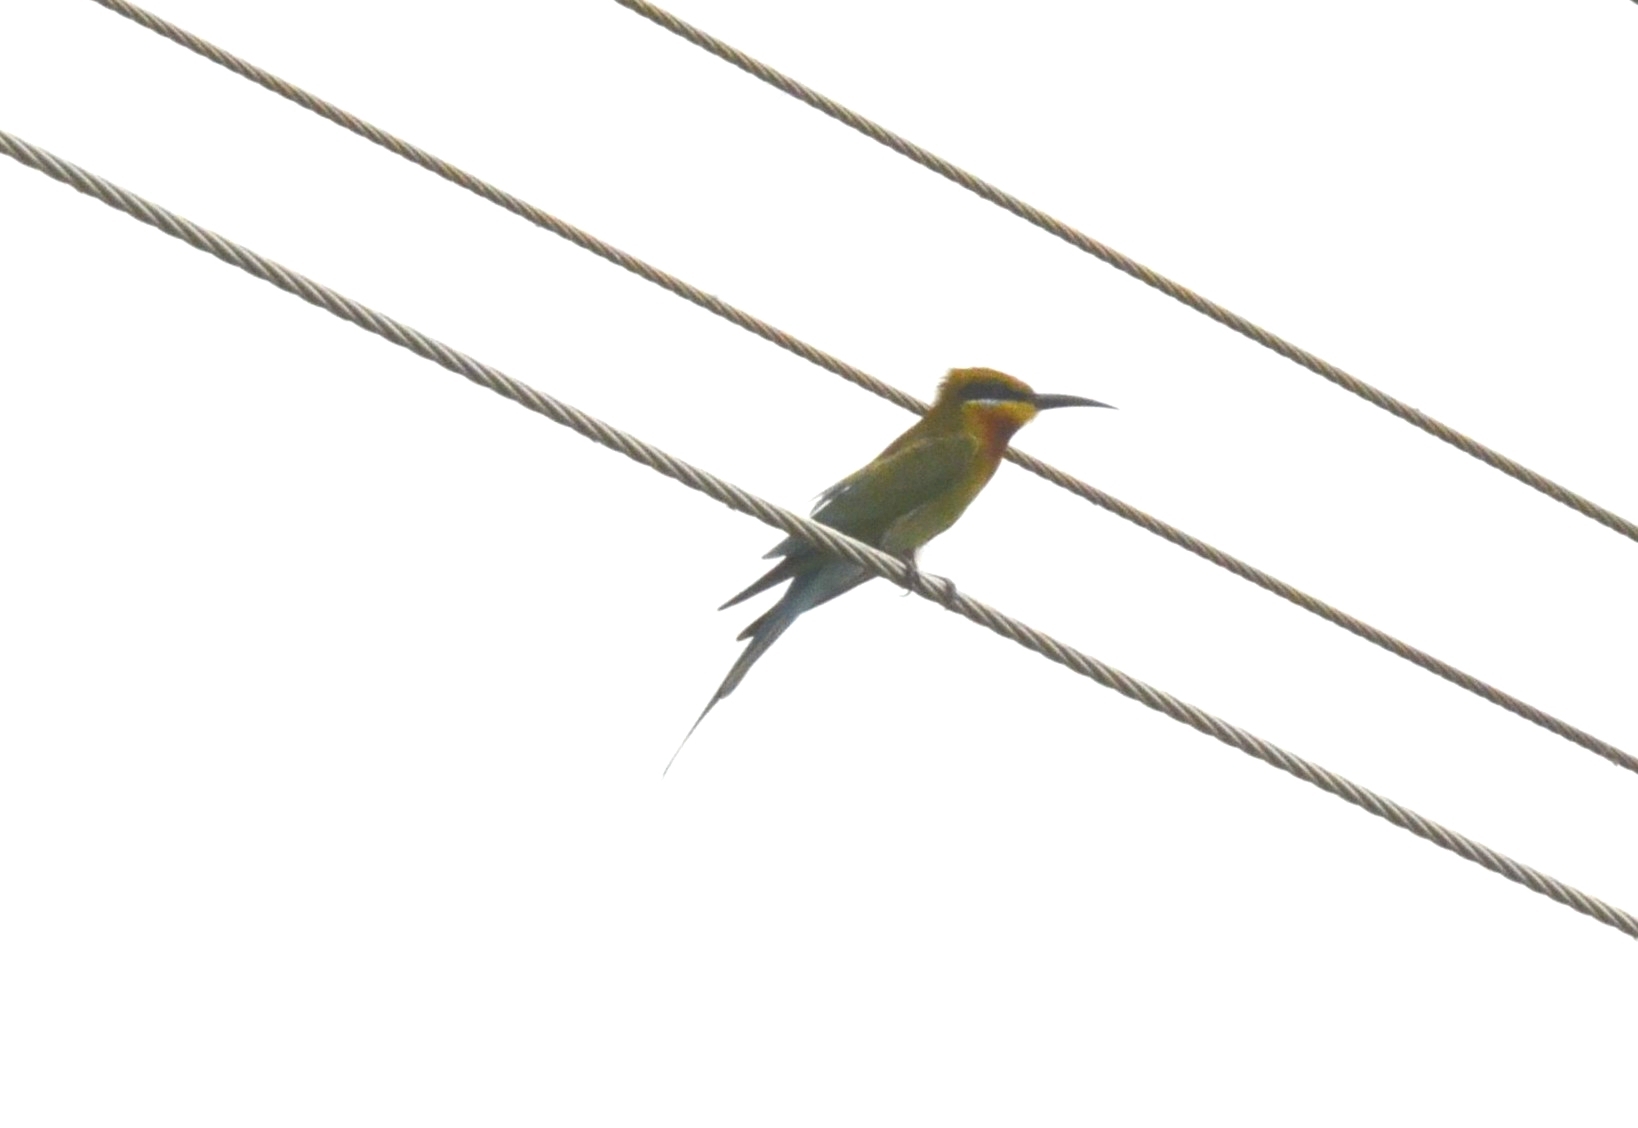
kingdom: Animalia
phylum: Chordata
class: Aves
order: Coraciiformes
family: Meropidae
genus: Merops
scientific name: Merops philippinus
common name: Blue-tailed bee-eater
